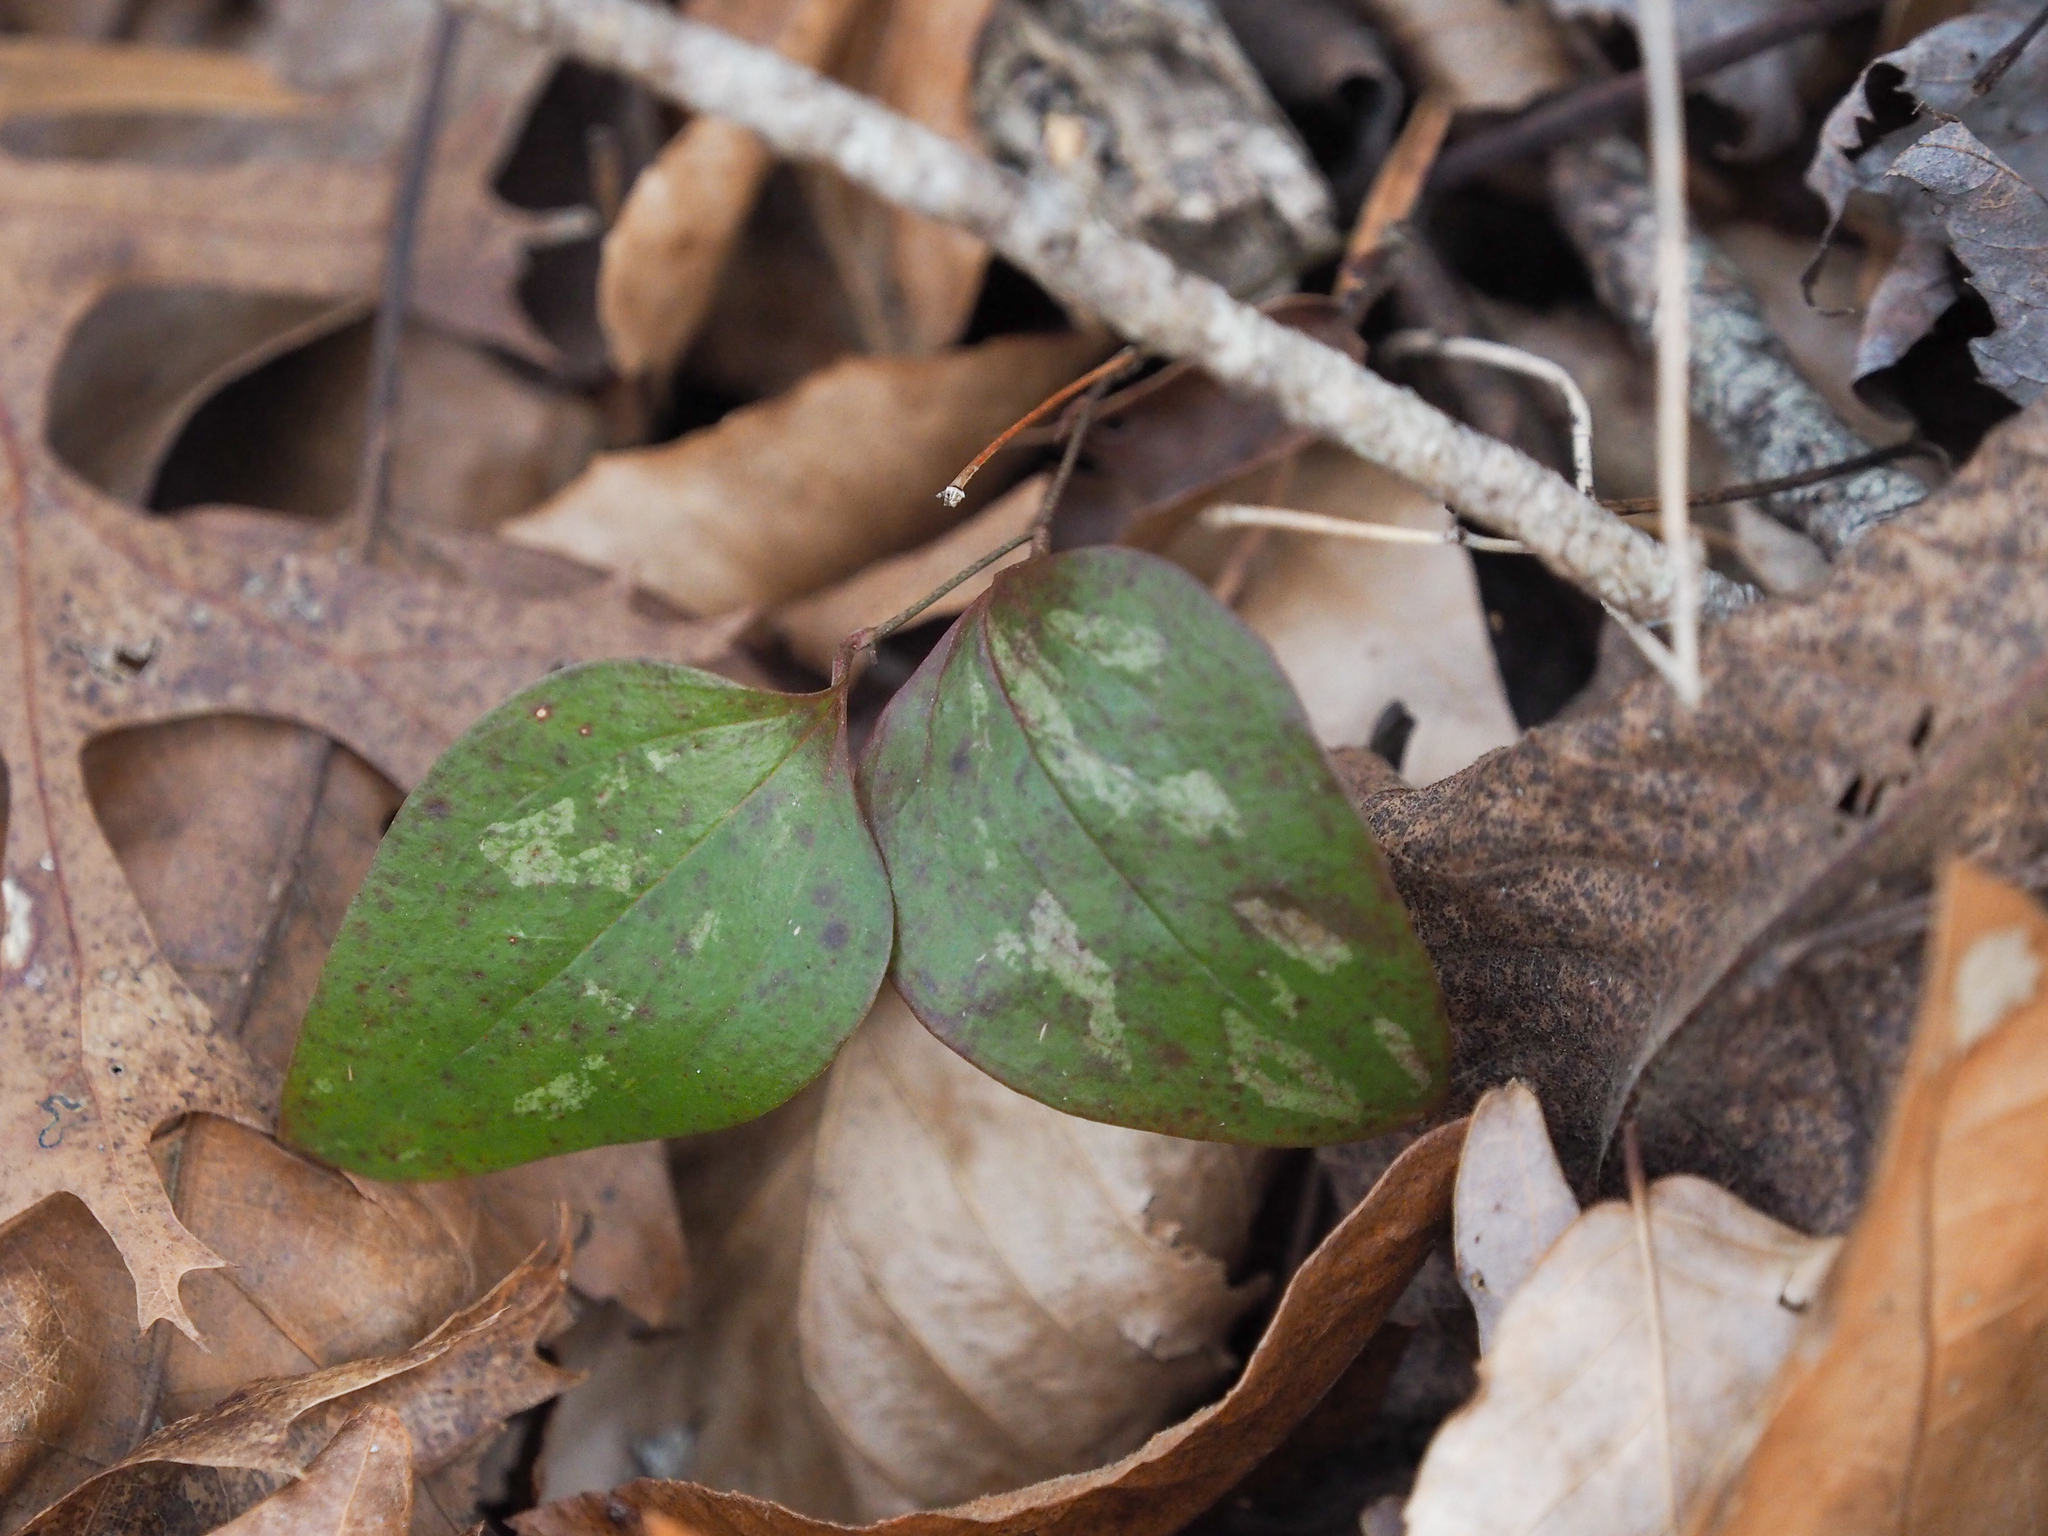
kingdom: Plantae
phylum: Tracheophyta
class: Liliopsida
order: Liliales
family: Smilacaceae
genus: Smilax
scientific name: Smilax glauca
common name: Cat greenbrier
